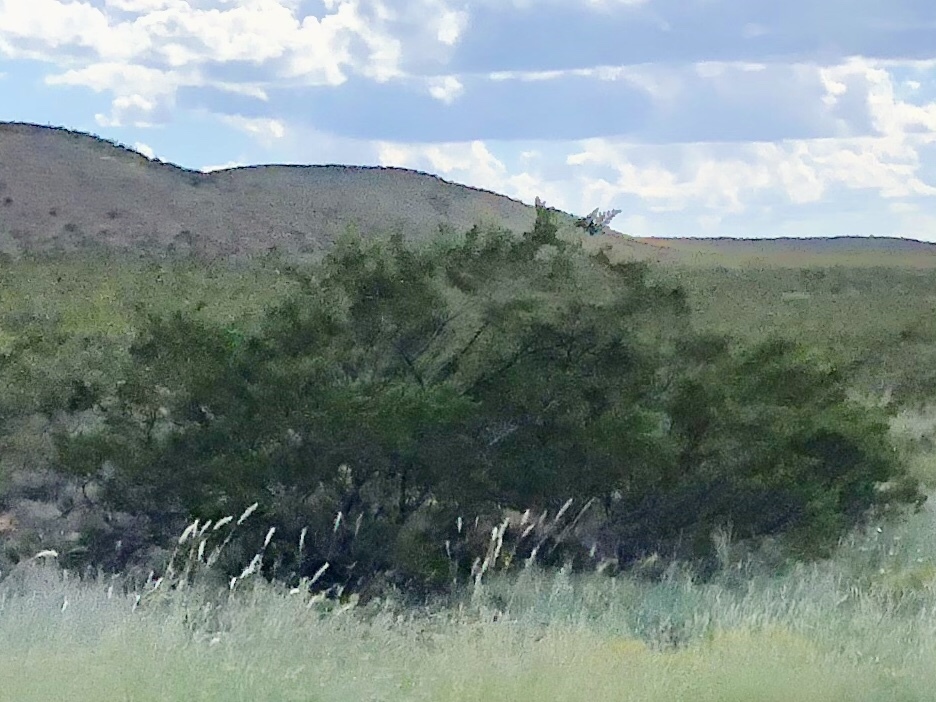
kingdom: Plantae
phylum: Tracheophyta
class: Magnoliopsida
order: Zygophyllales
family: Zygophyllaceae
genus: Larrea
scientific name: Larrea tridentata
